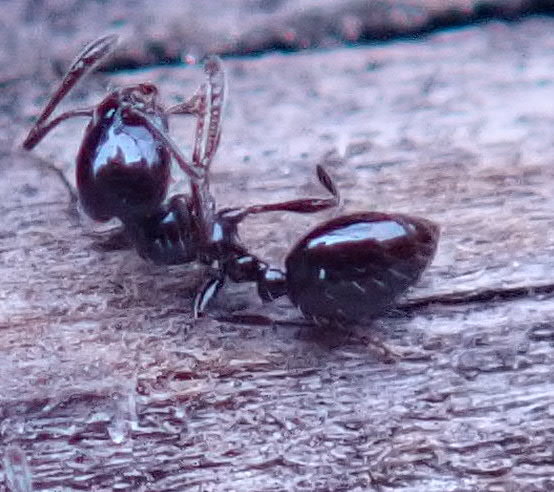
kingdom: Animalia
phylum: Arthropoda
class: Insecta
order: Hymenoptera
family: Formicidae
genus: Monomorium
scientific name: Monomorium ergatogyna
